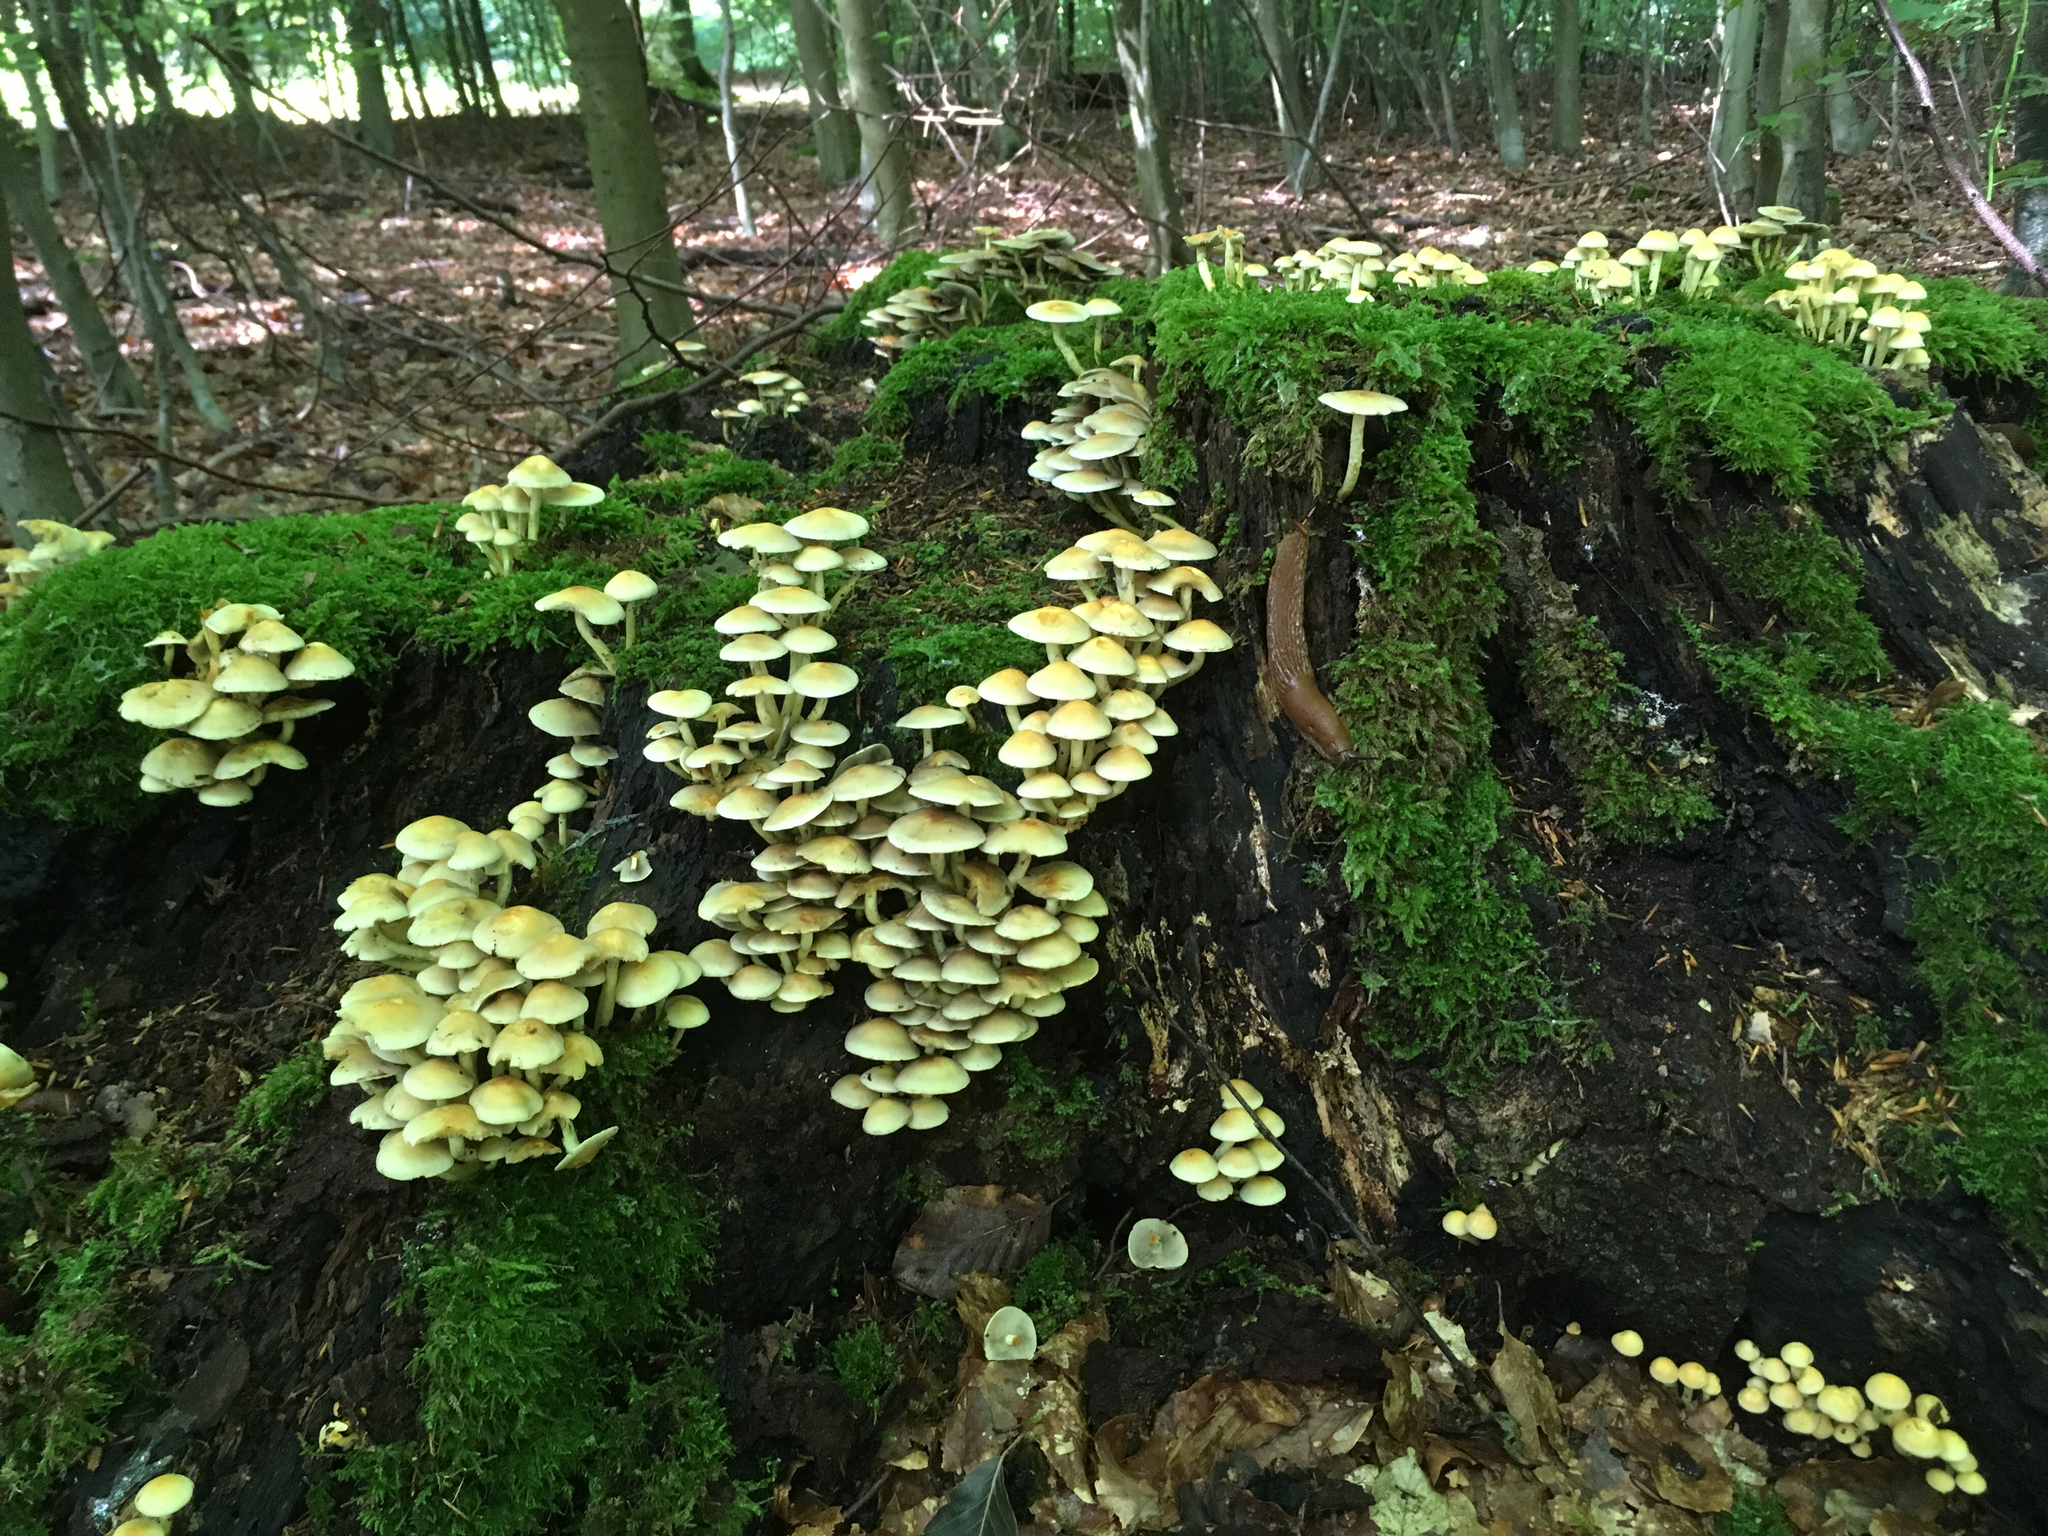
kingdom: Fungi
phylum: Basidiomycota
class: Agaricomycetes
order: Agaricales
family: Strophariaceae
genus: Hypholoma
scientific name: Hypholoma fasciculare
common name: Sulphur tuft
